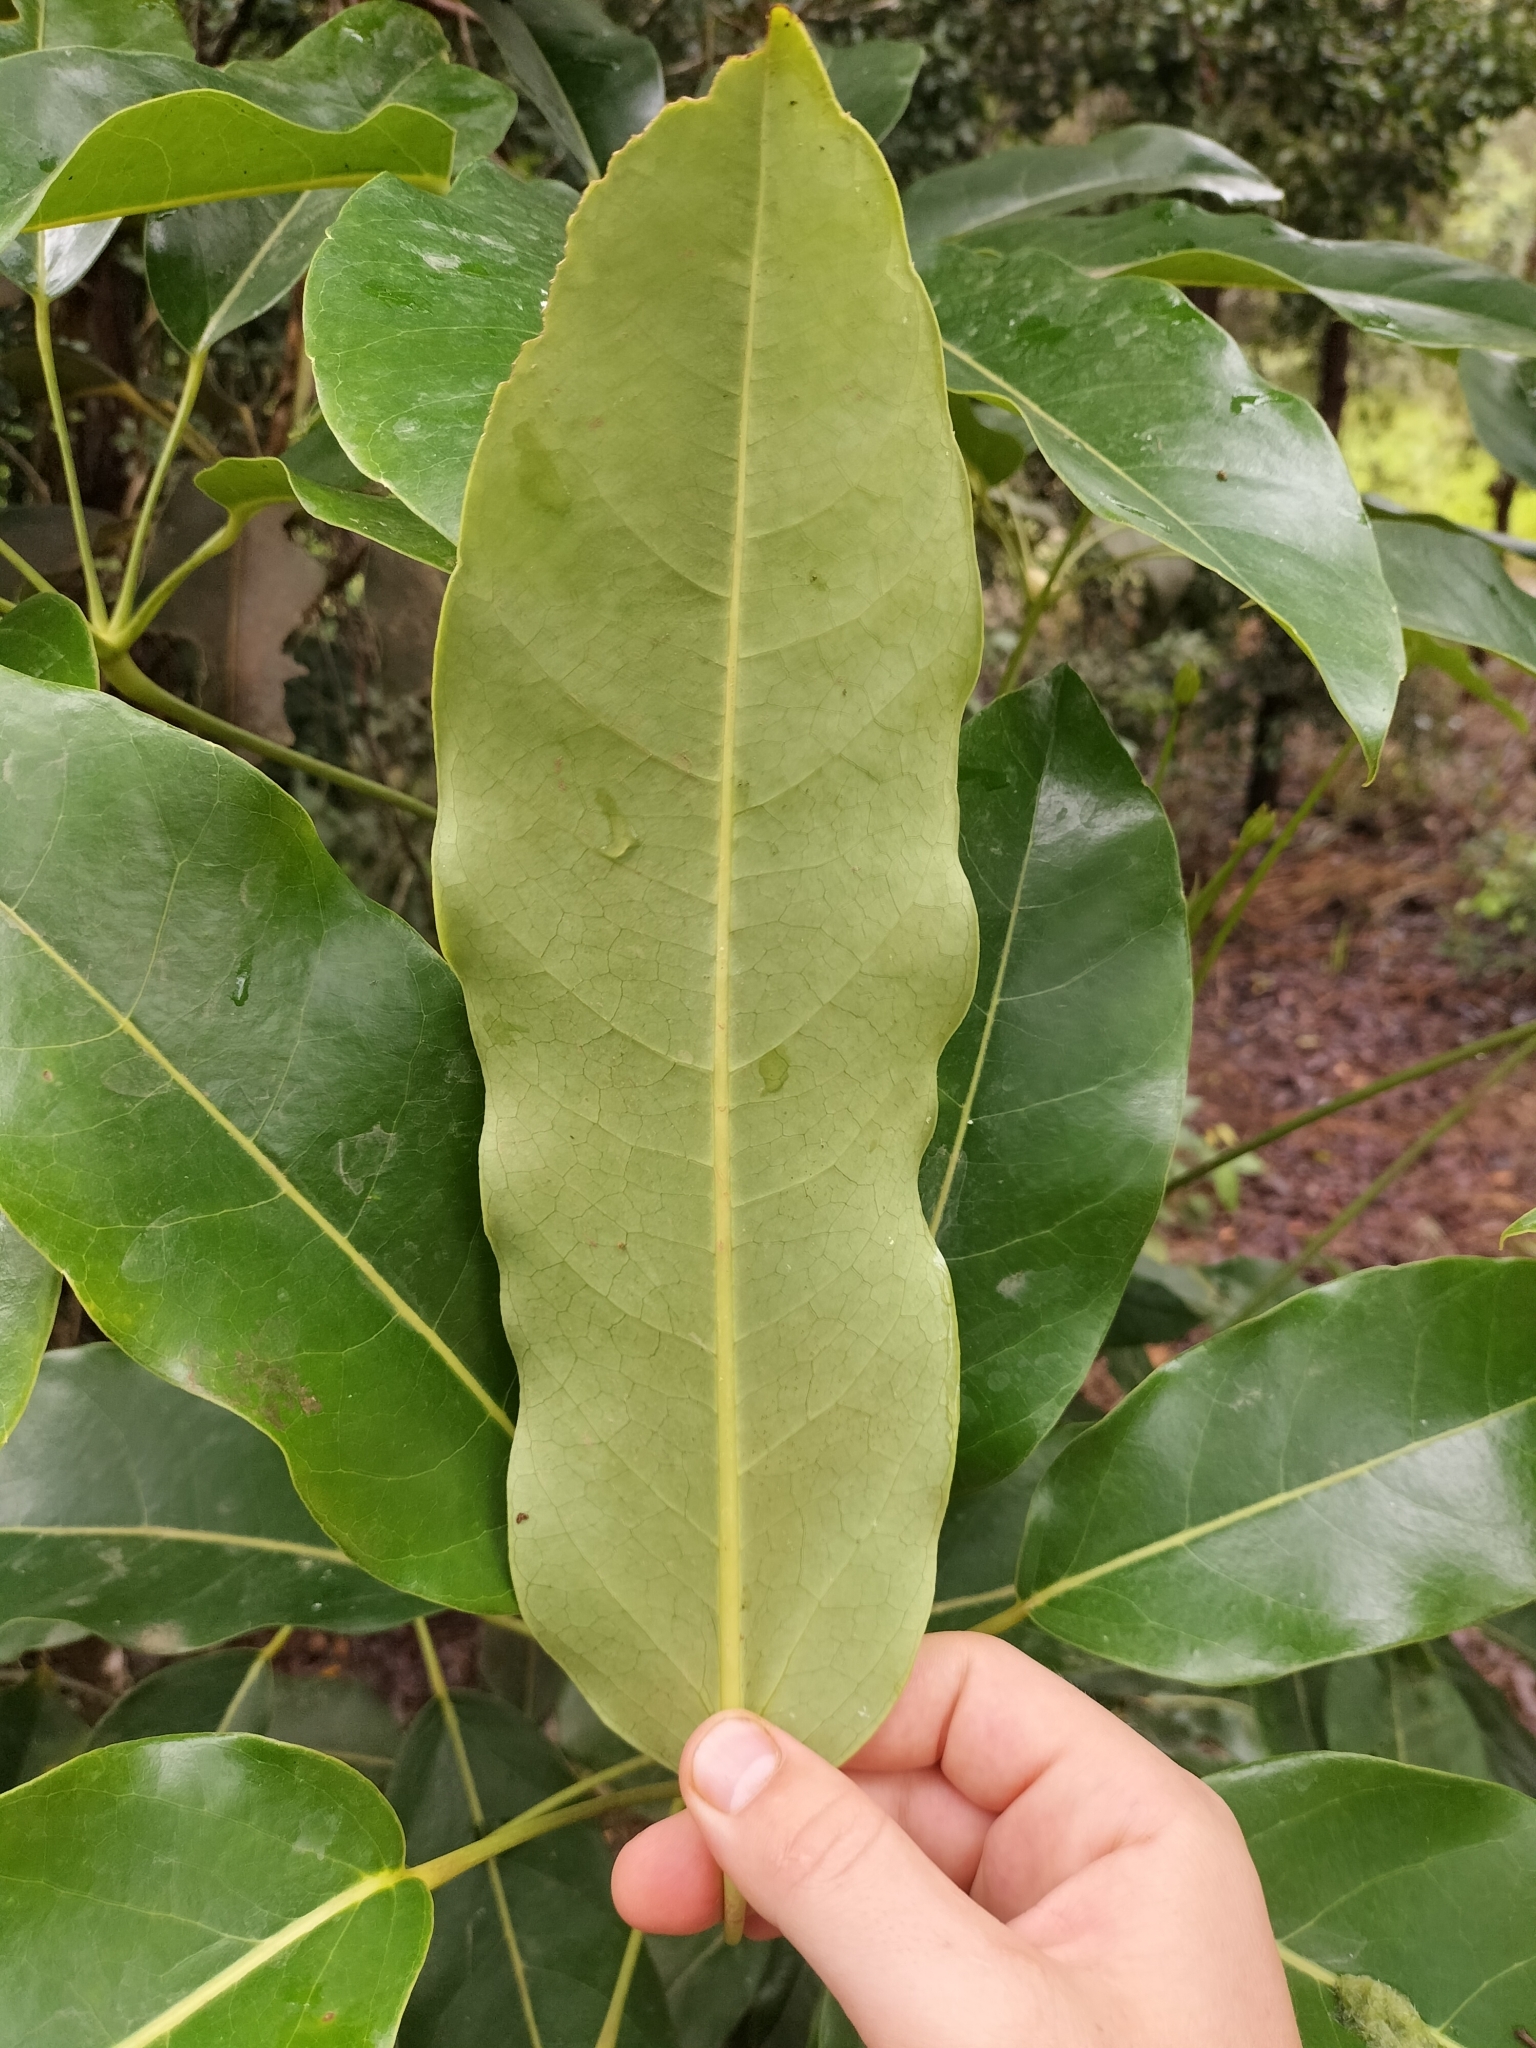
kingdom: Plantae
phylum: Tracheophyta
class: Magnoliopsida
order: Apiales
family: Araliaceae
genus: Heptapleurum
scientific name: Heptapleurum actinophyllum
